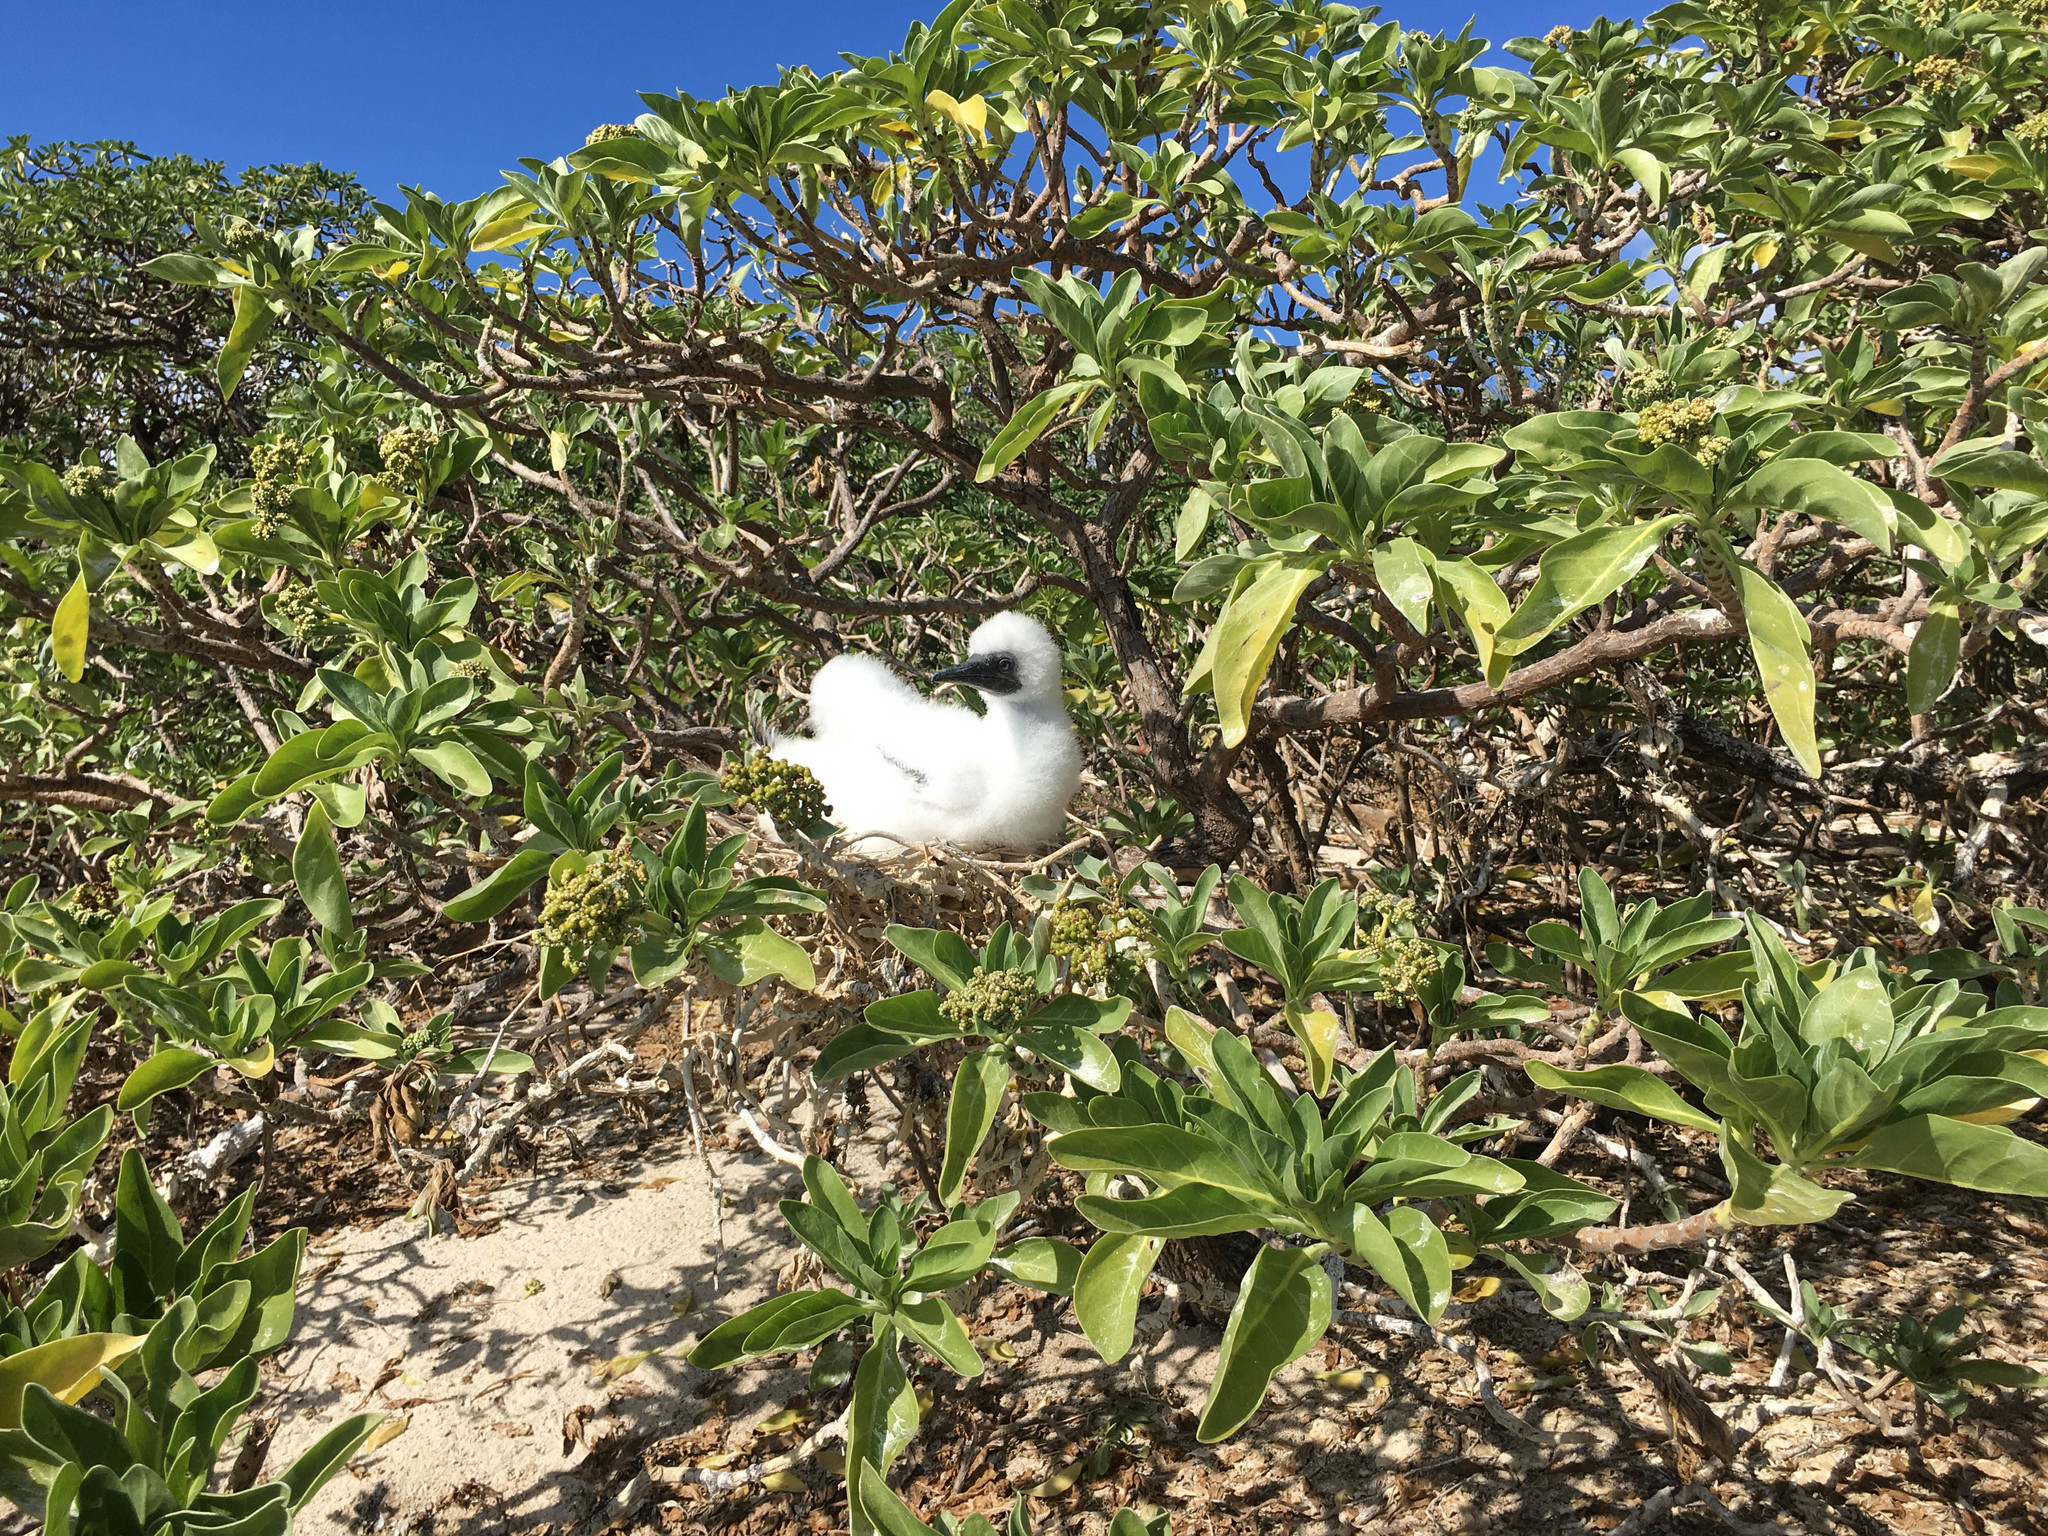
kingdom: Animalia
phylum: Chordata
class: Aves
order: Suliformes
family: Sulidae
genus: Sula
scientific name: Sula sula
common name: Red-footed booby
